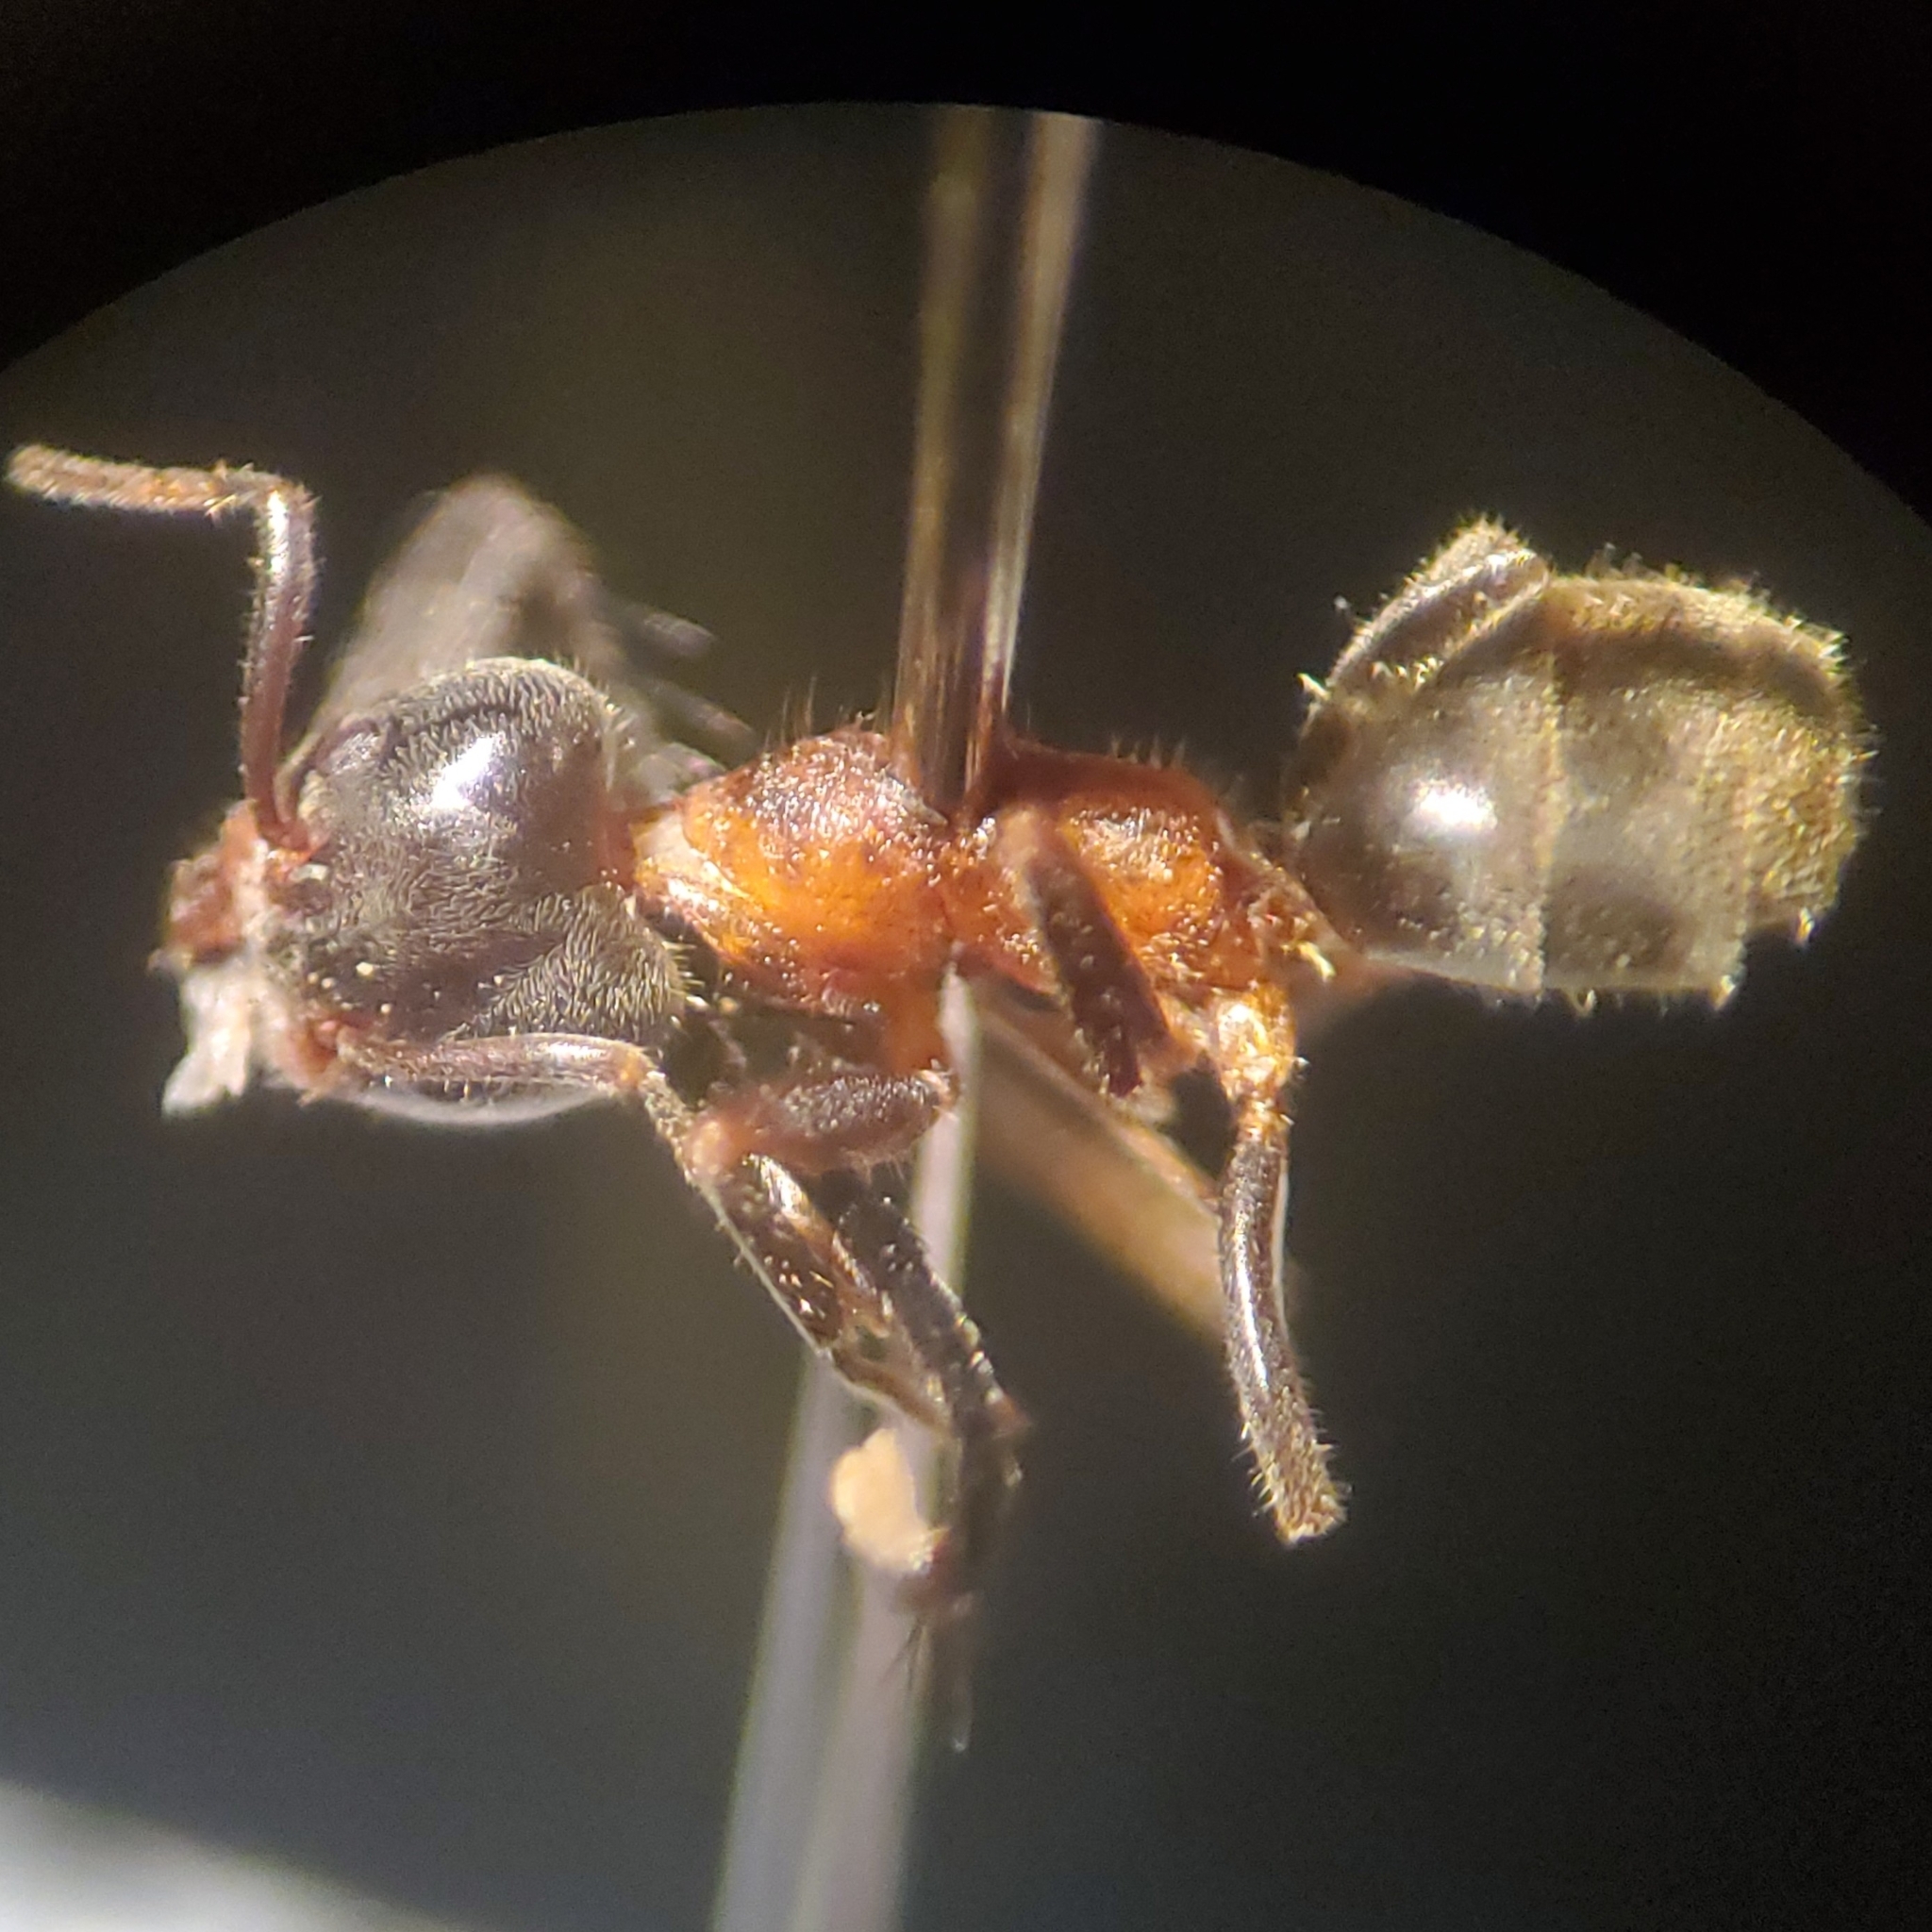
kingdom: Animalia
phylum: Arthropoda
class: Insecta
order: Hymenoptera
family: Formicidae
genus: Liometopum
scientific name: Liometopum occidentale
